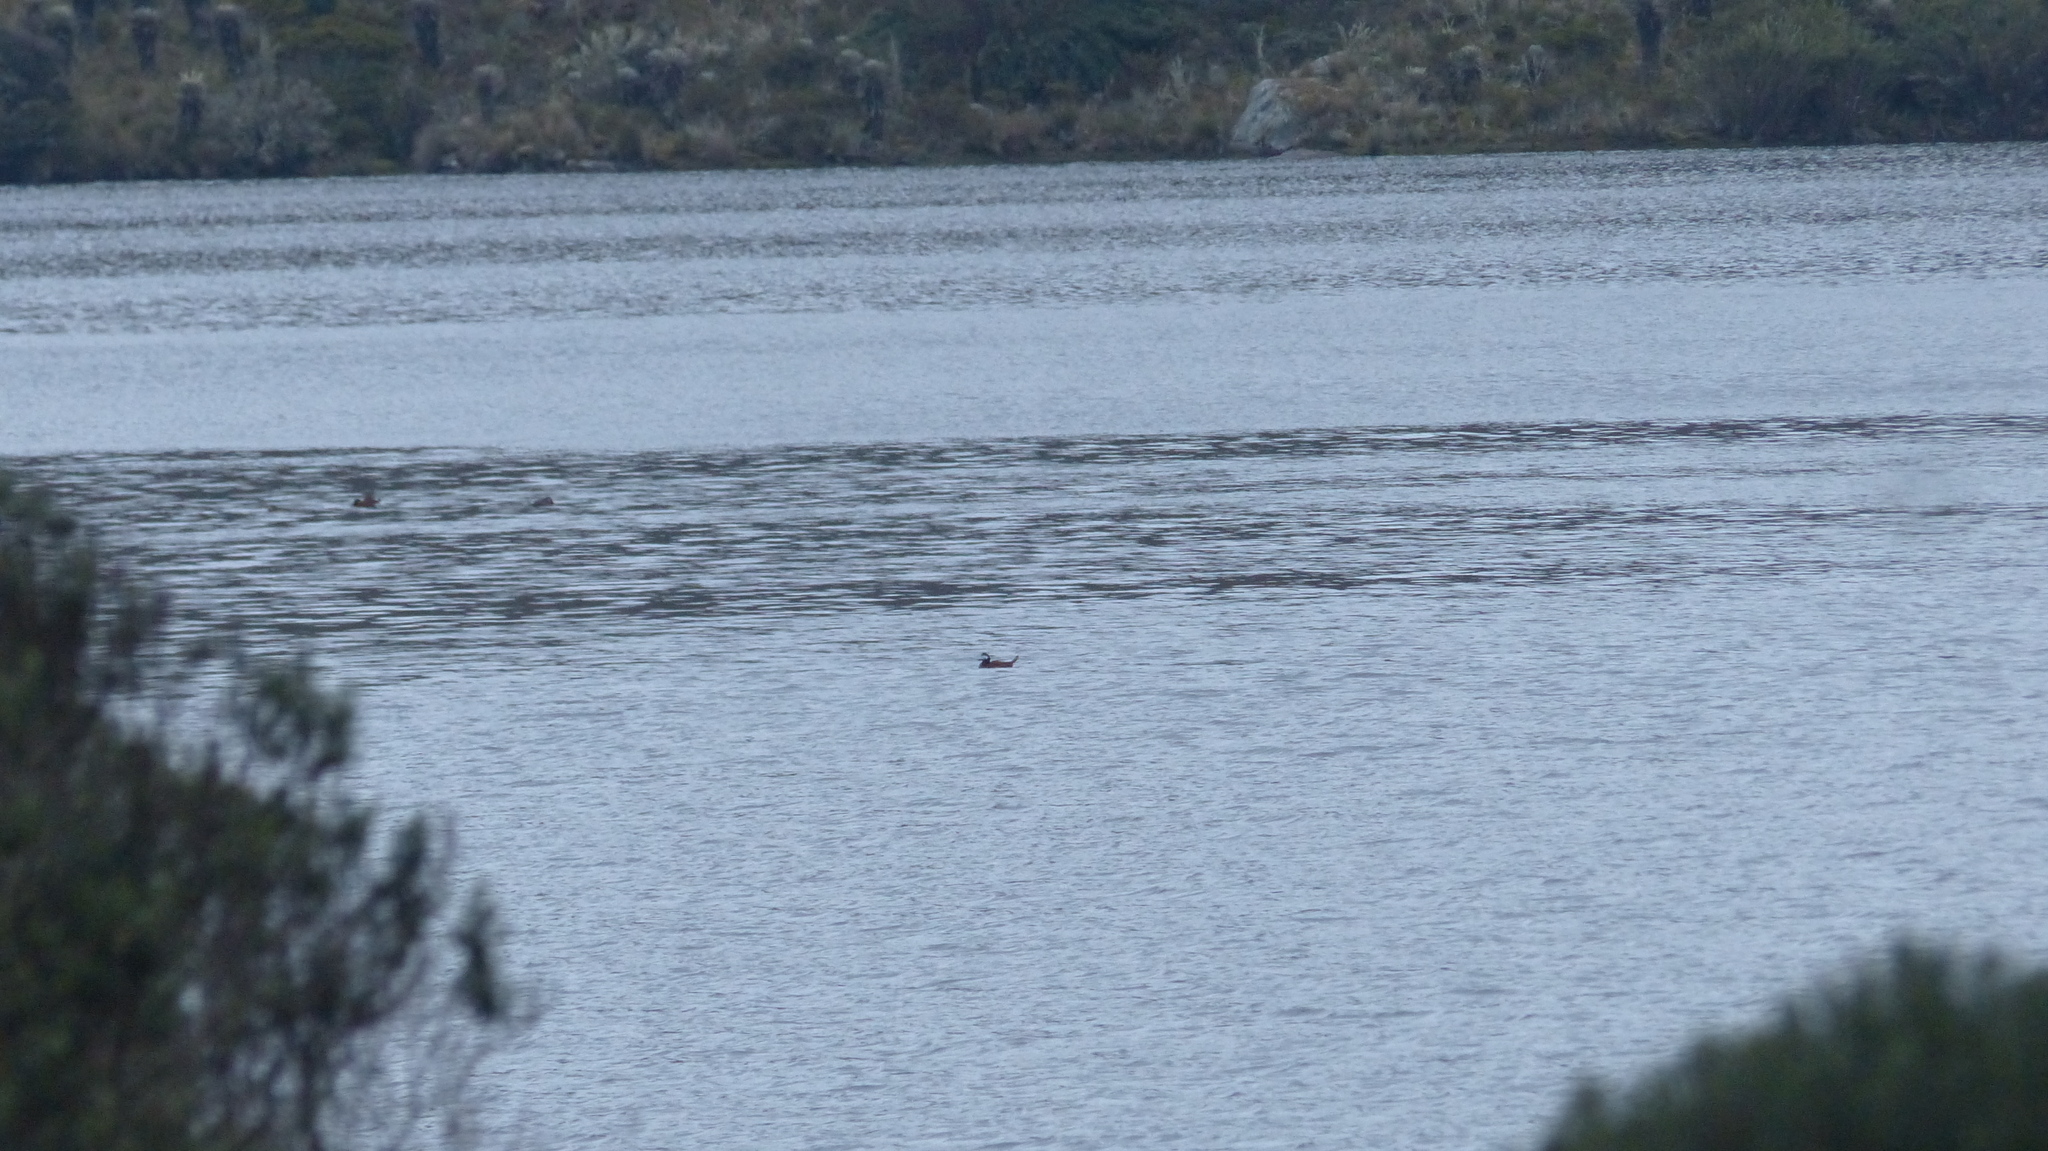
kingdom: Animalia
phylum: Chordata
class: Aves
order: Anseriformes
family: Anatidae
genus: Oxyura
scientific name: Oxyura ferruginea
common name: Andean duck
